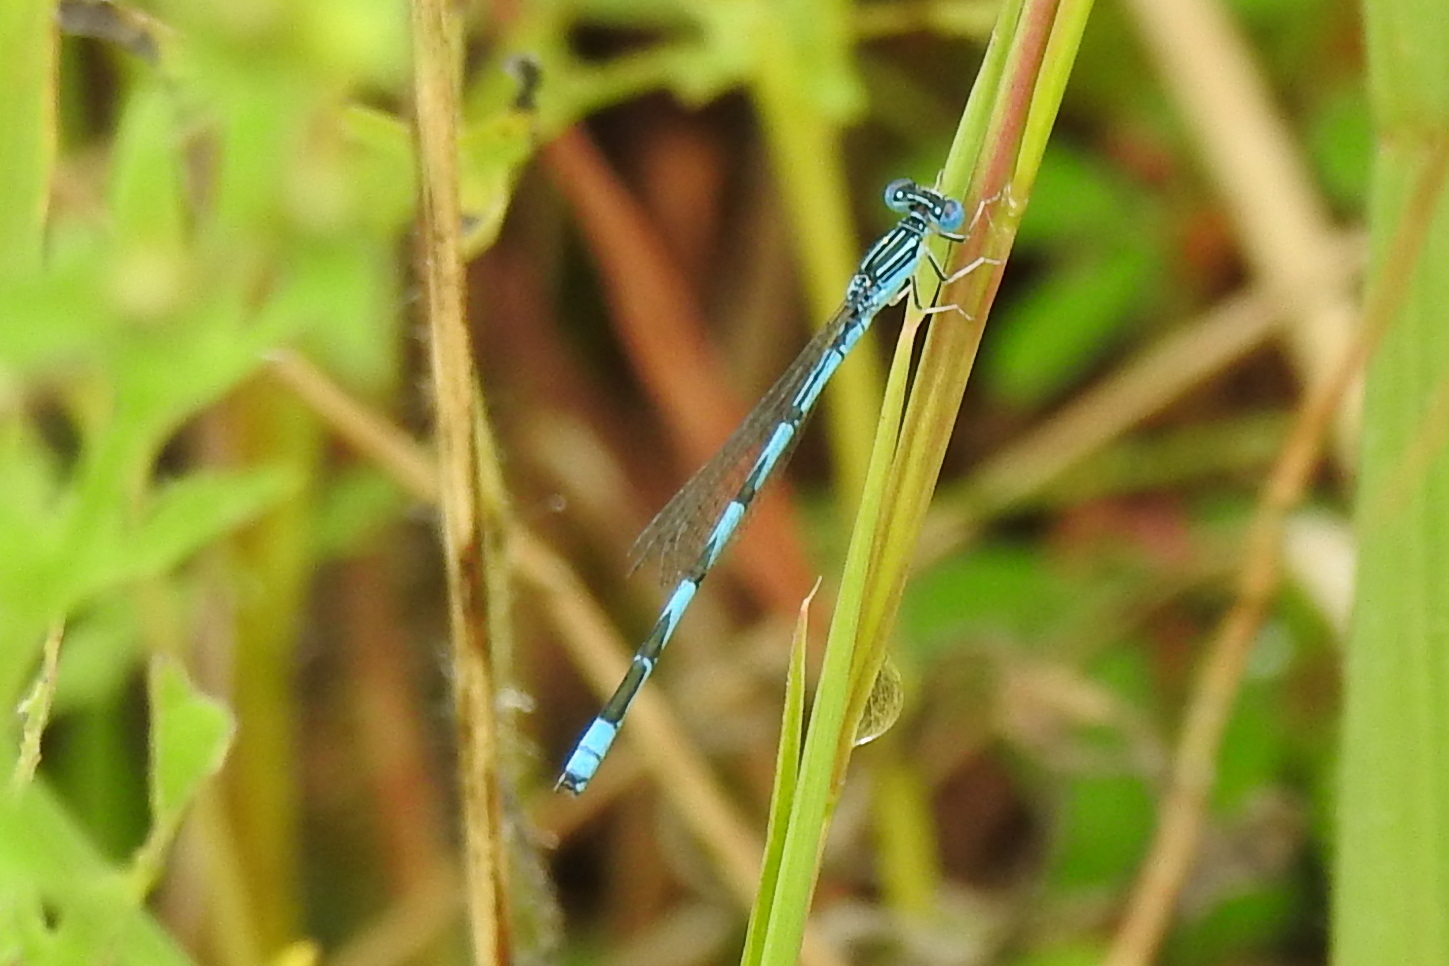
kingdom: Animalia
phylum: Arthropoda
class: Insecta
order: Odonata
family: Coenagrionidae
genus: Enallagma
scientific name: Enallagma basidens
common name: Double-striped bluet
